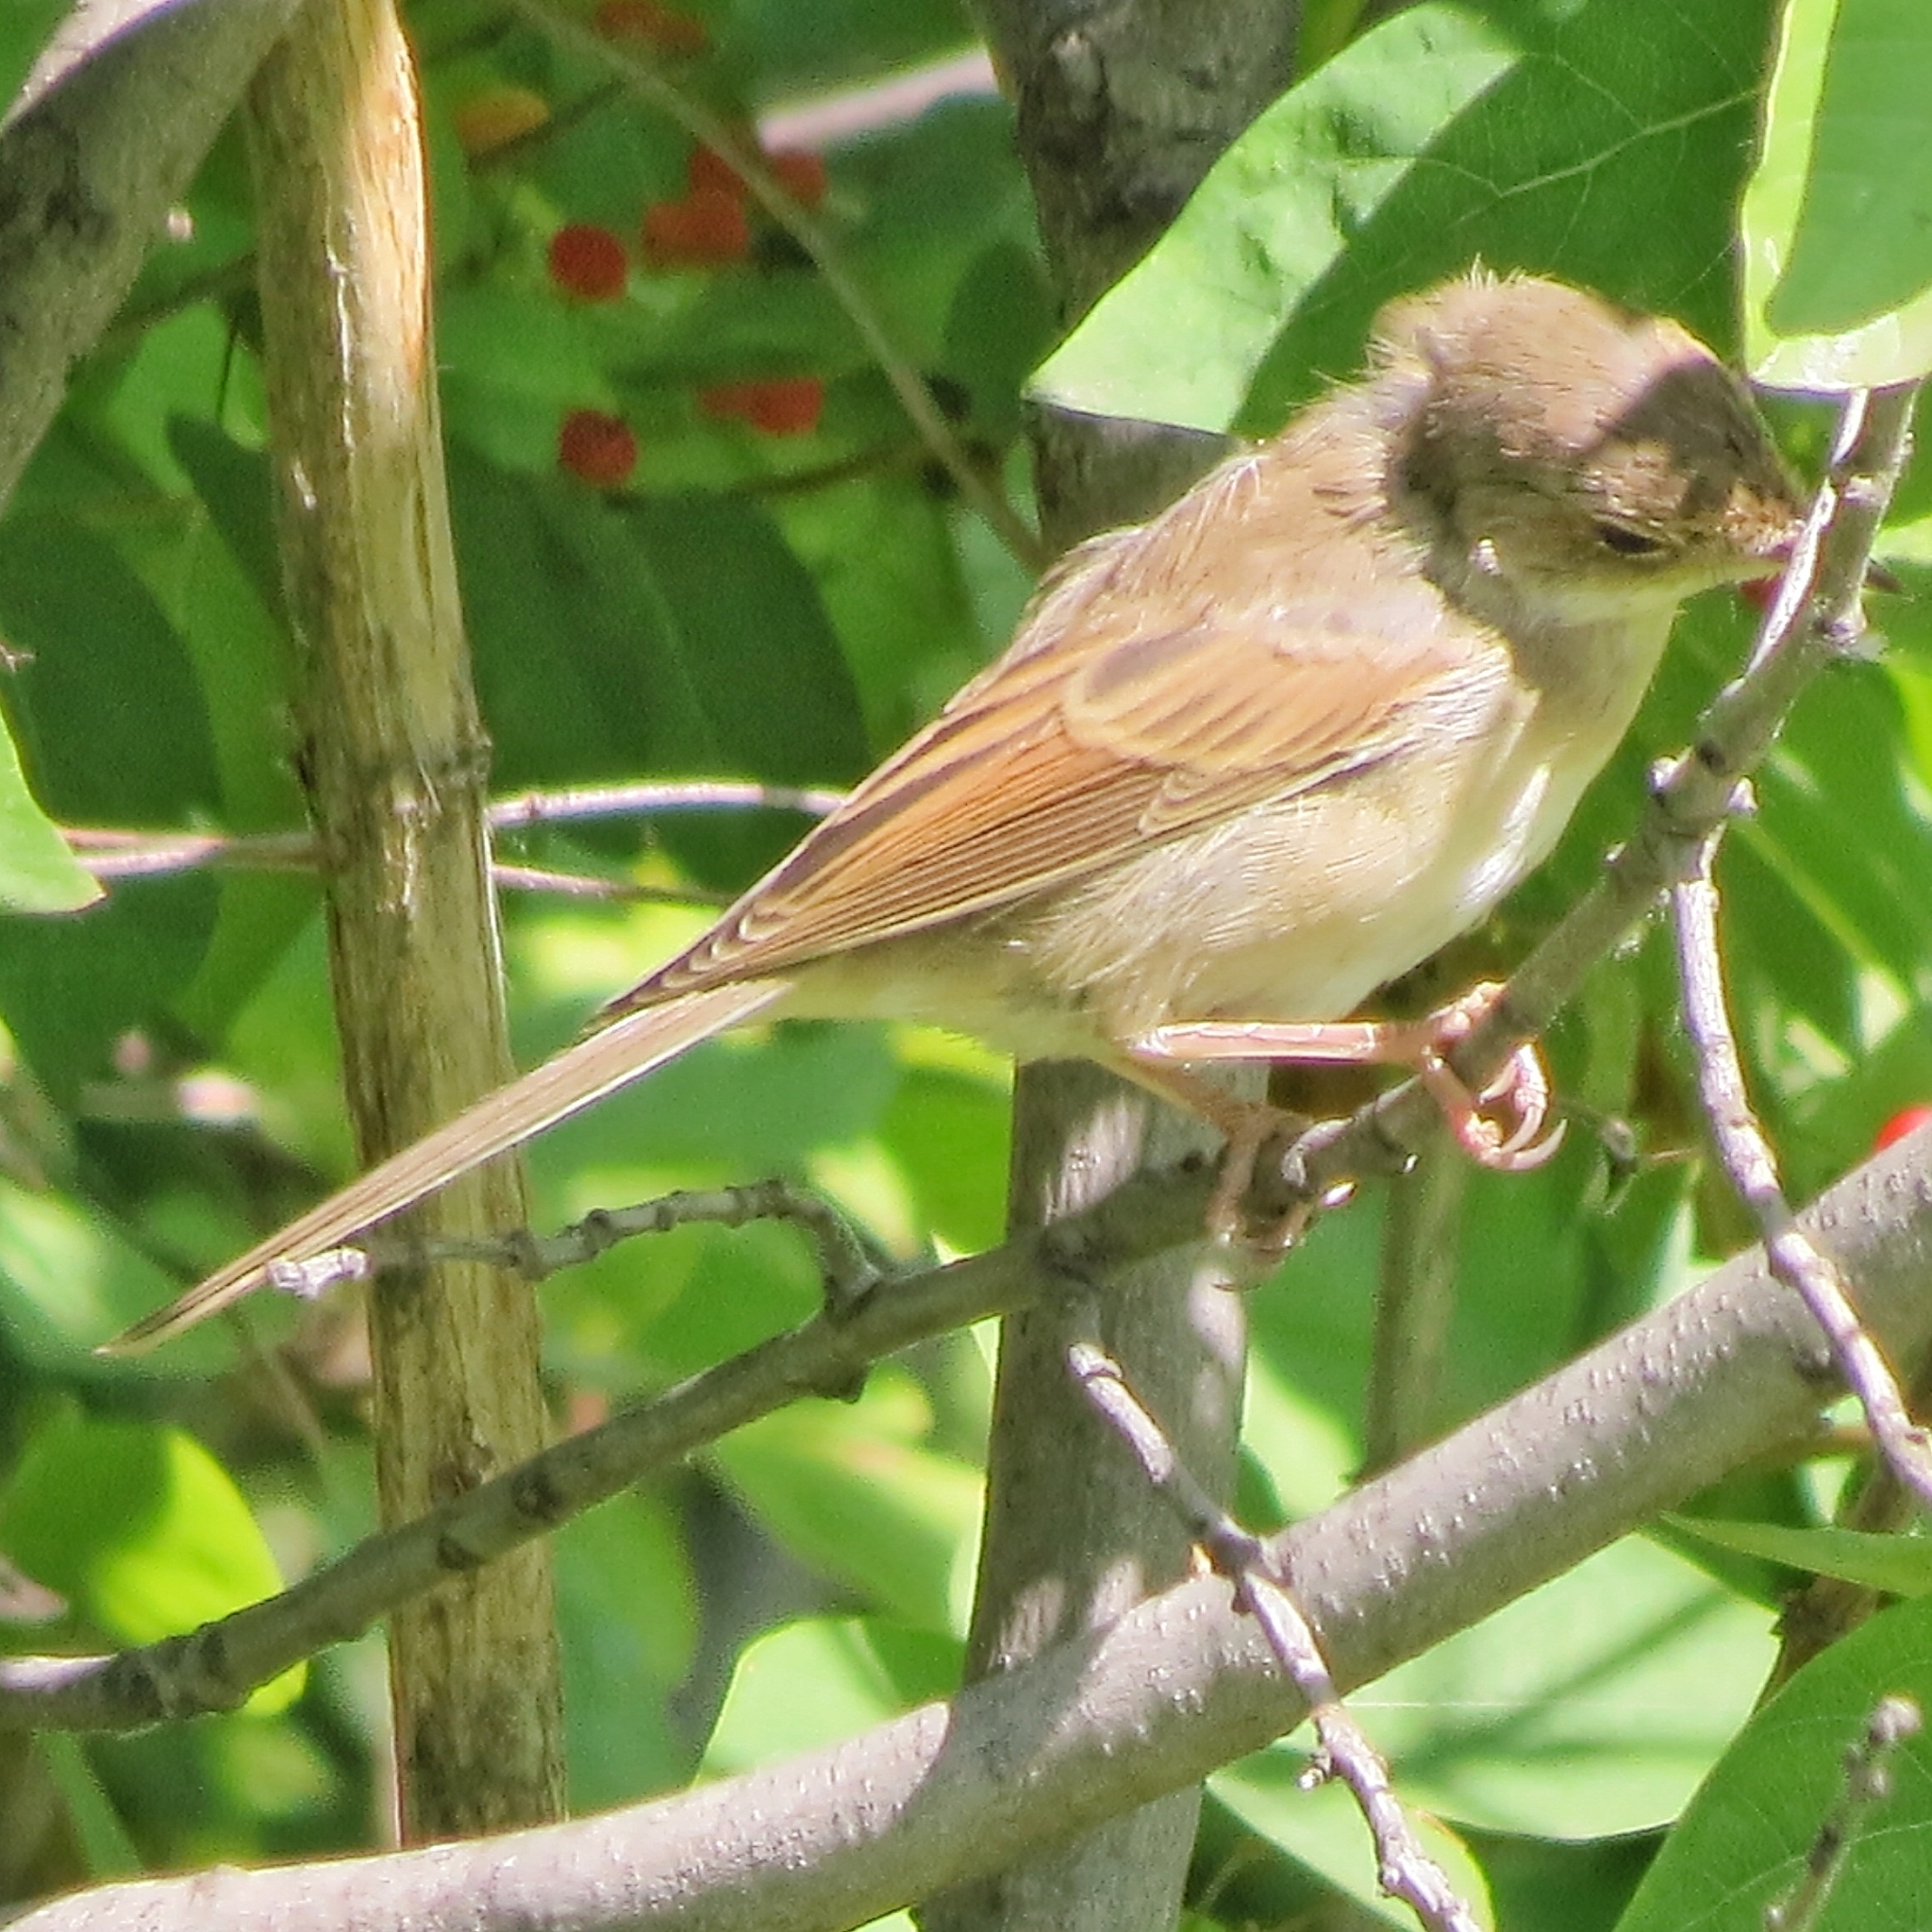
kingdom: Animalia
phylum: Chordata
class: Aves
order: Passeriformes
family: Sylviidae
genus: Sylvia
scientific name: Sylvia communis
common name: Common whitethroat
